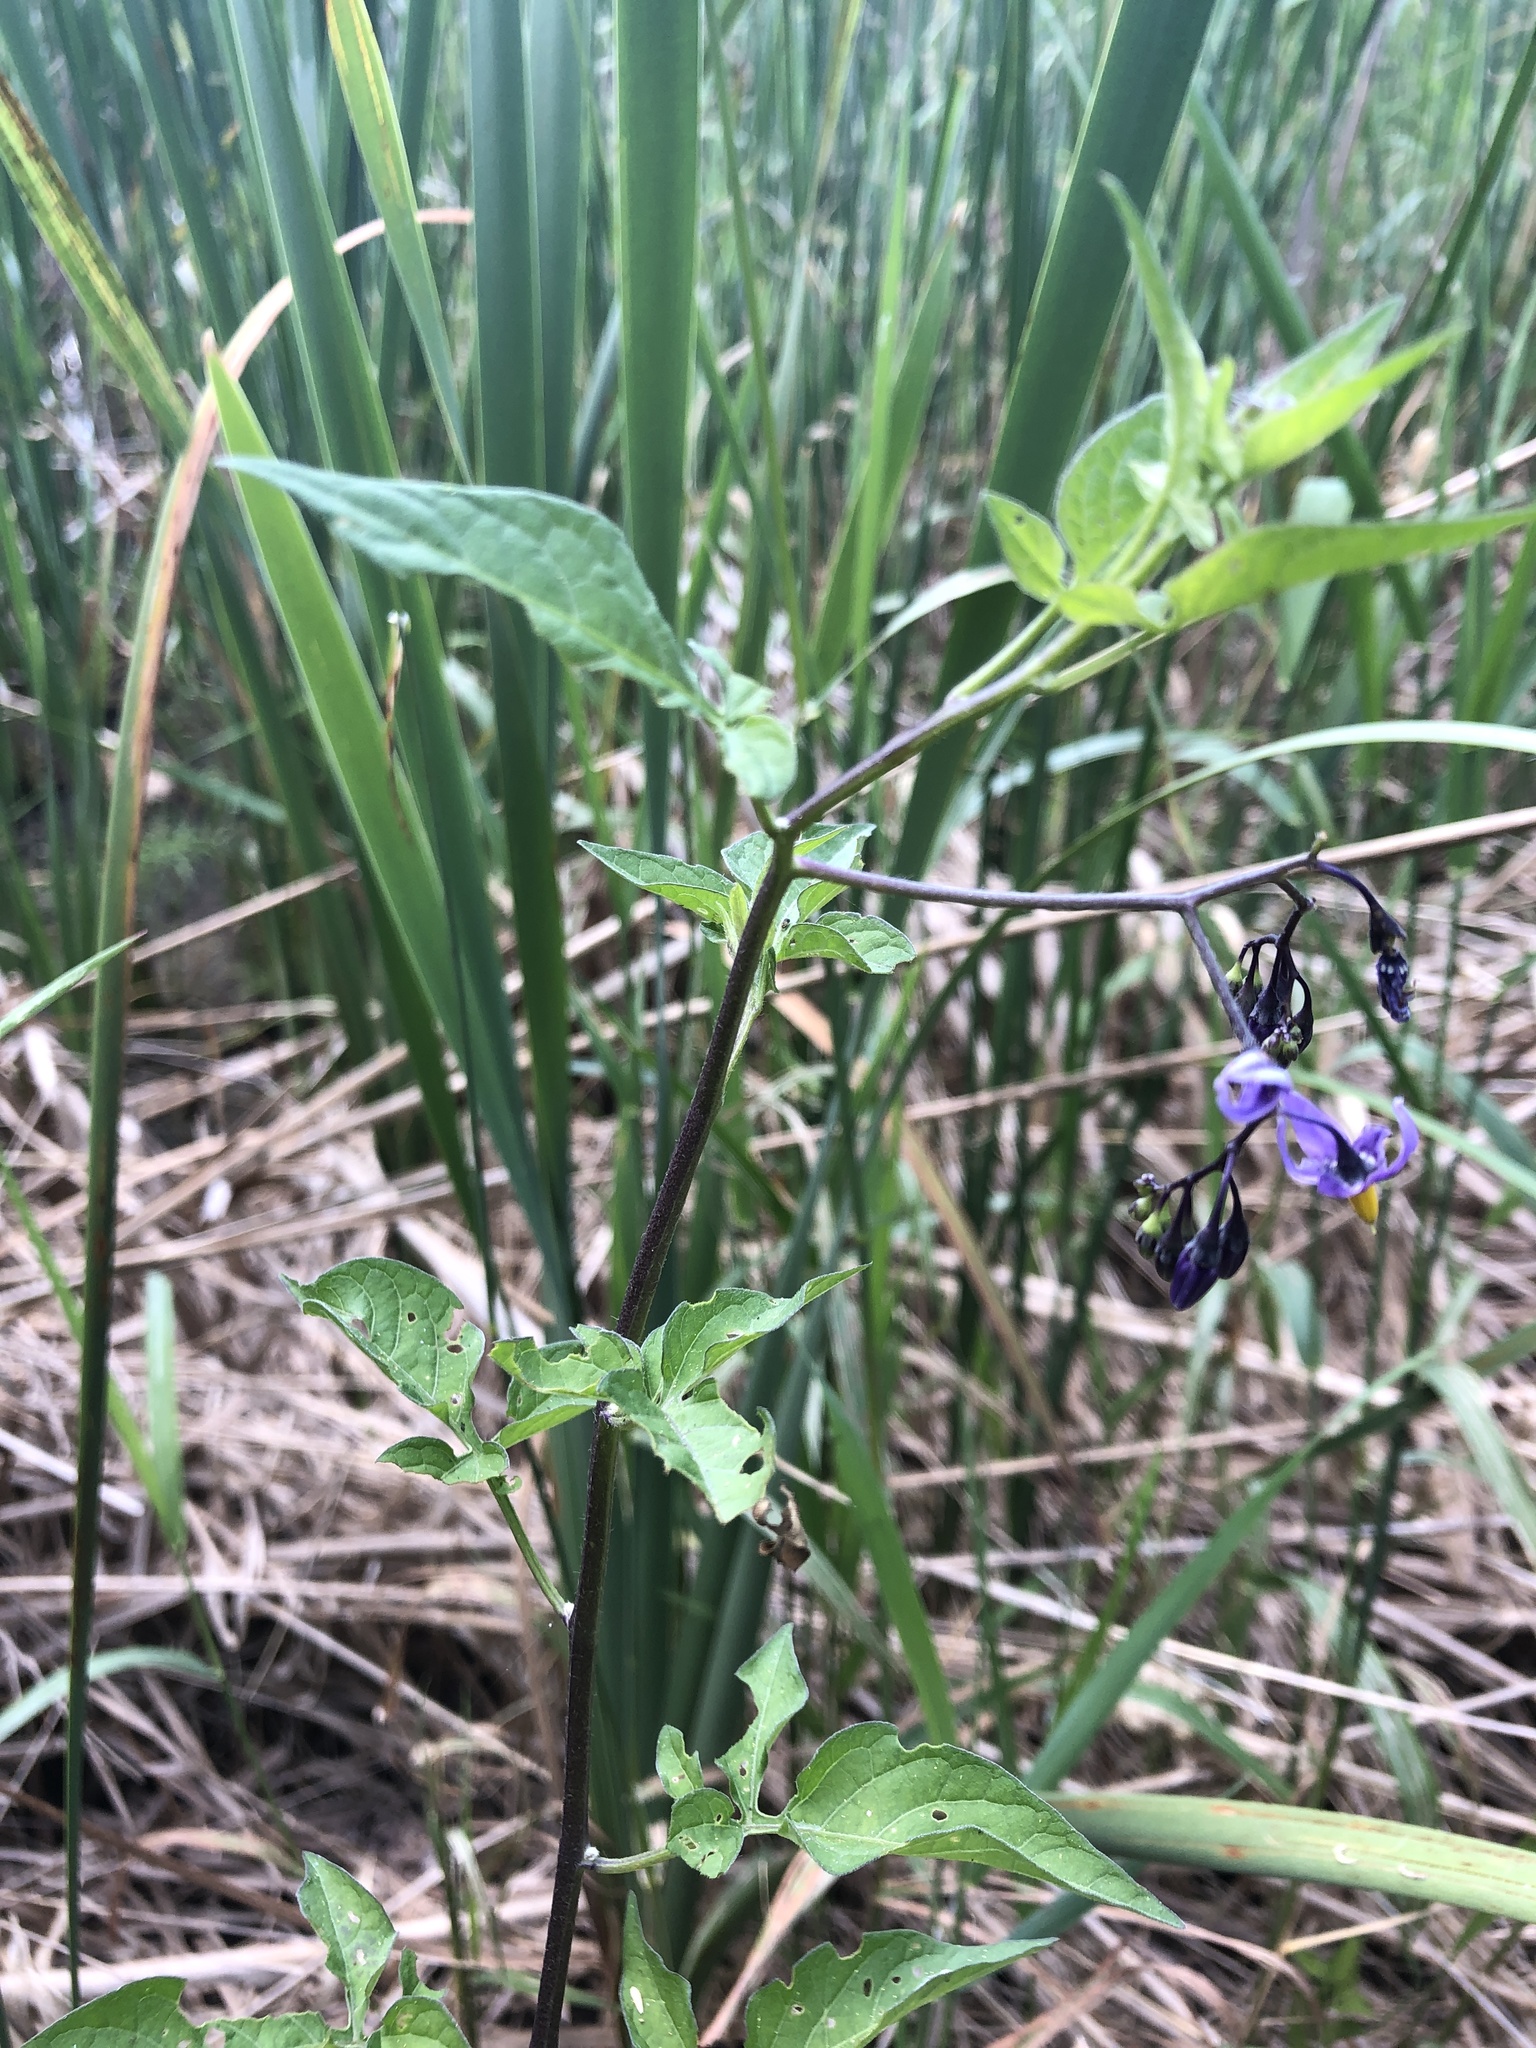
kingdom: Plantae
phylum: Tracheophyta
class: Magnoliopsida
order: Solanales
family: Solanaceae
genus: Solanum
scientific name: Solanum dulcamara
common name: Climbing nightshade
